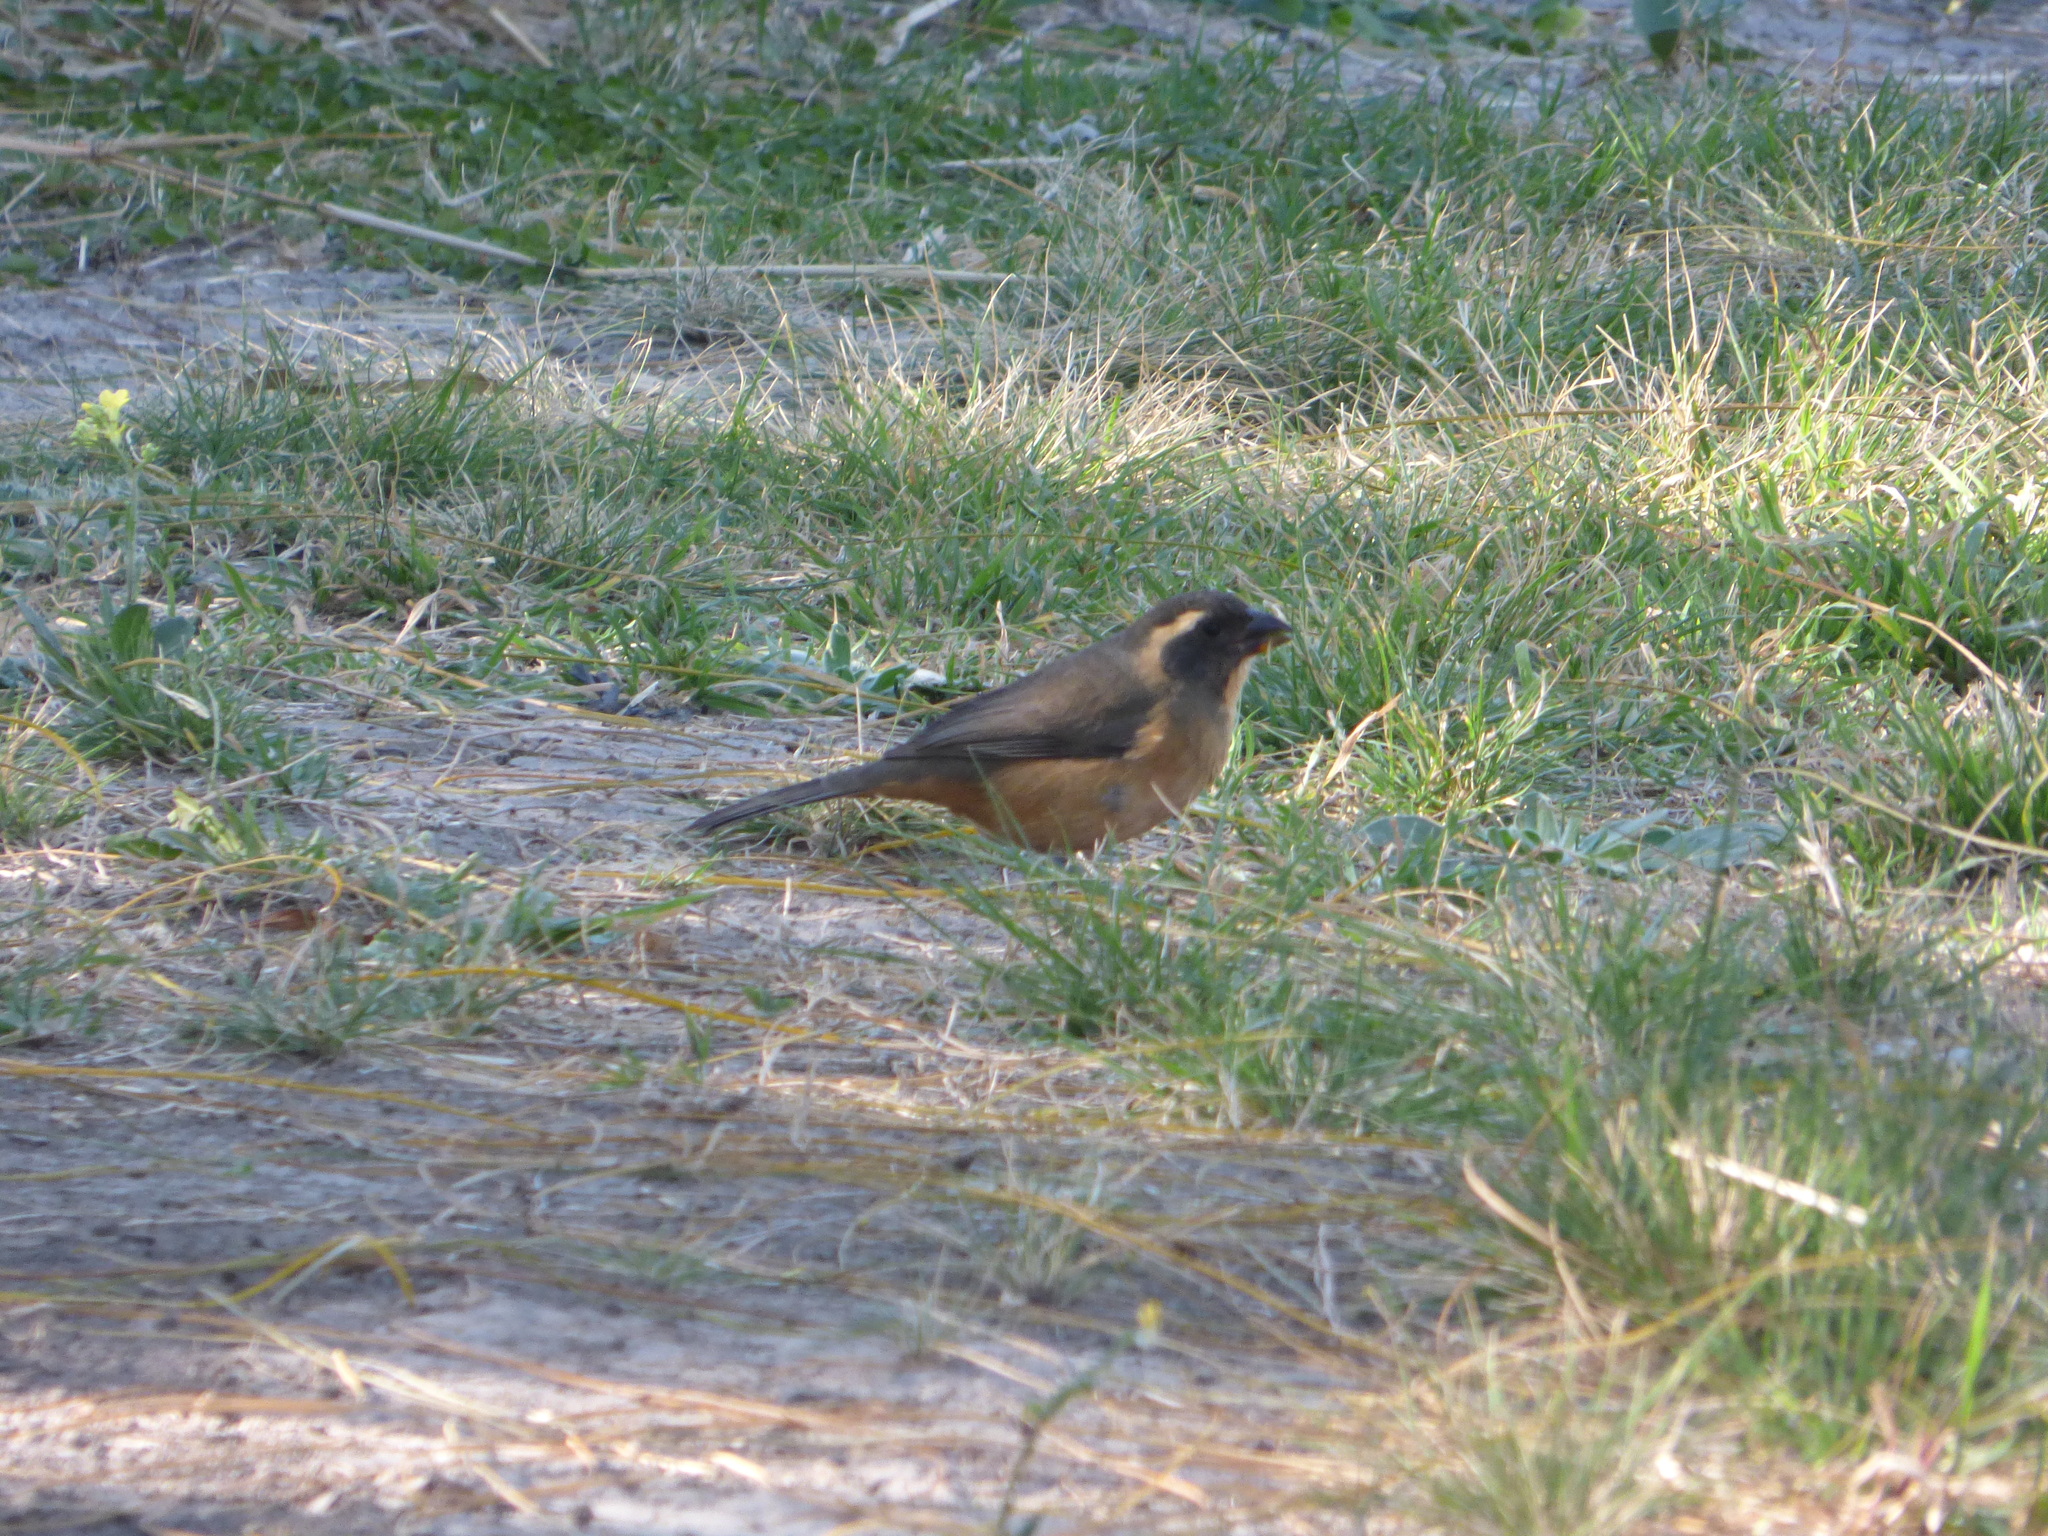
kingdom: Animalia
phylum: Chordata
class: Aves
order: Passeriformes
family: Thraupidae
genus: Saltator
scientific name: Saltator aurantiirostris
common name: Golden-billed saltator
